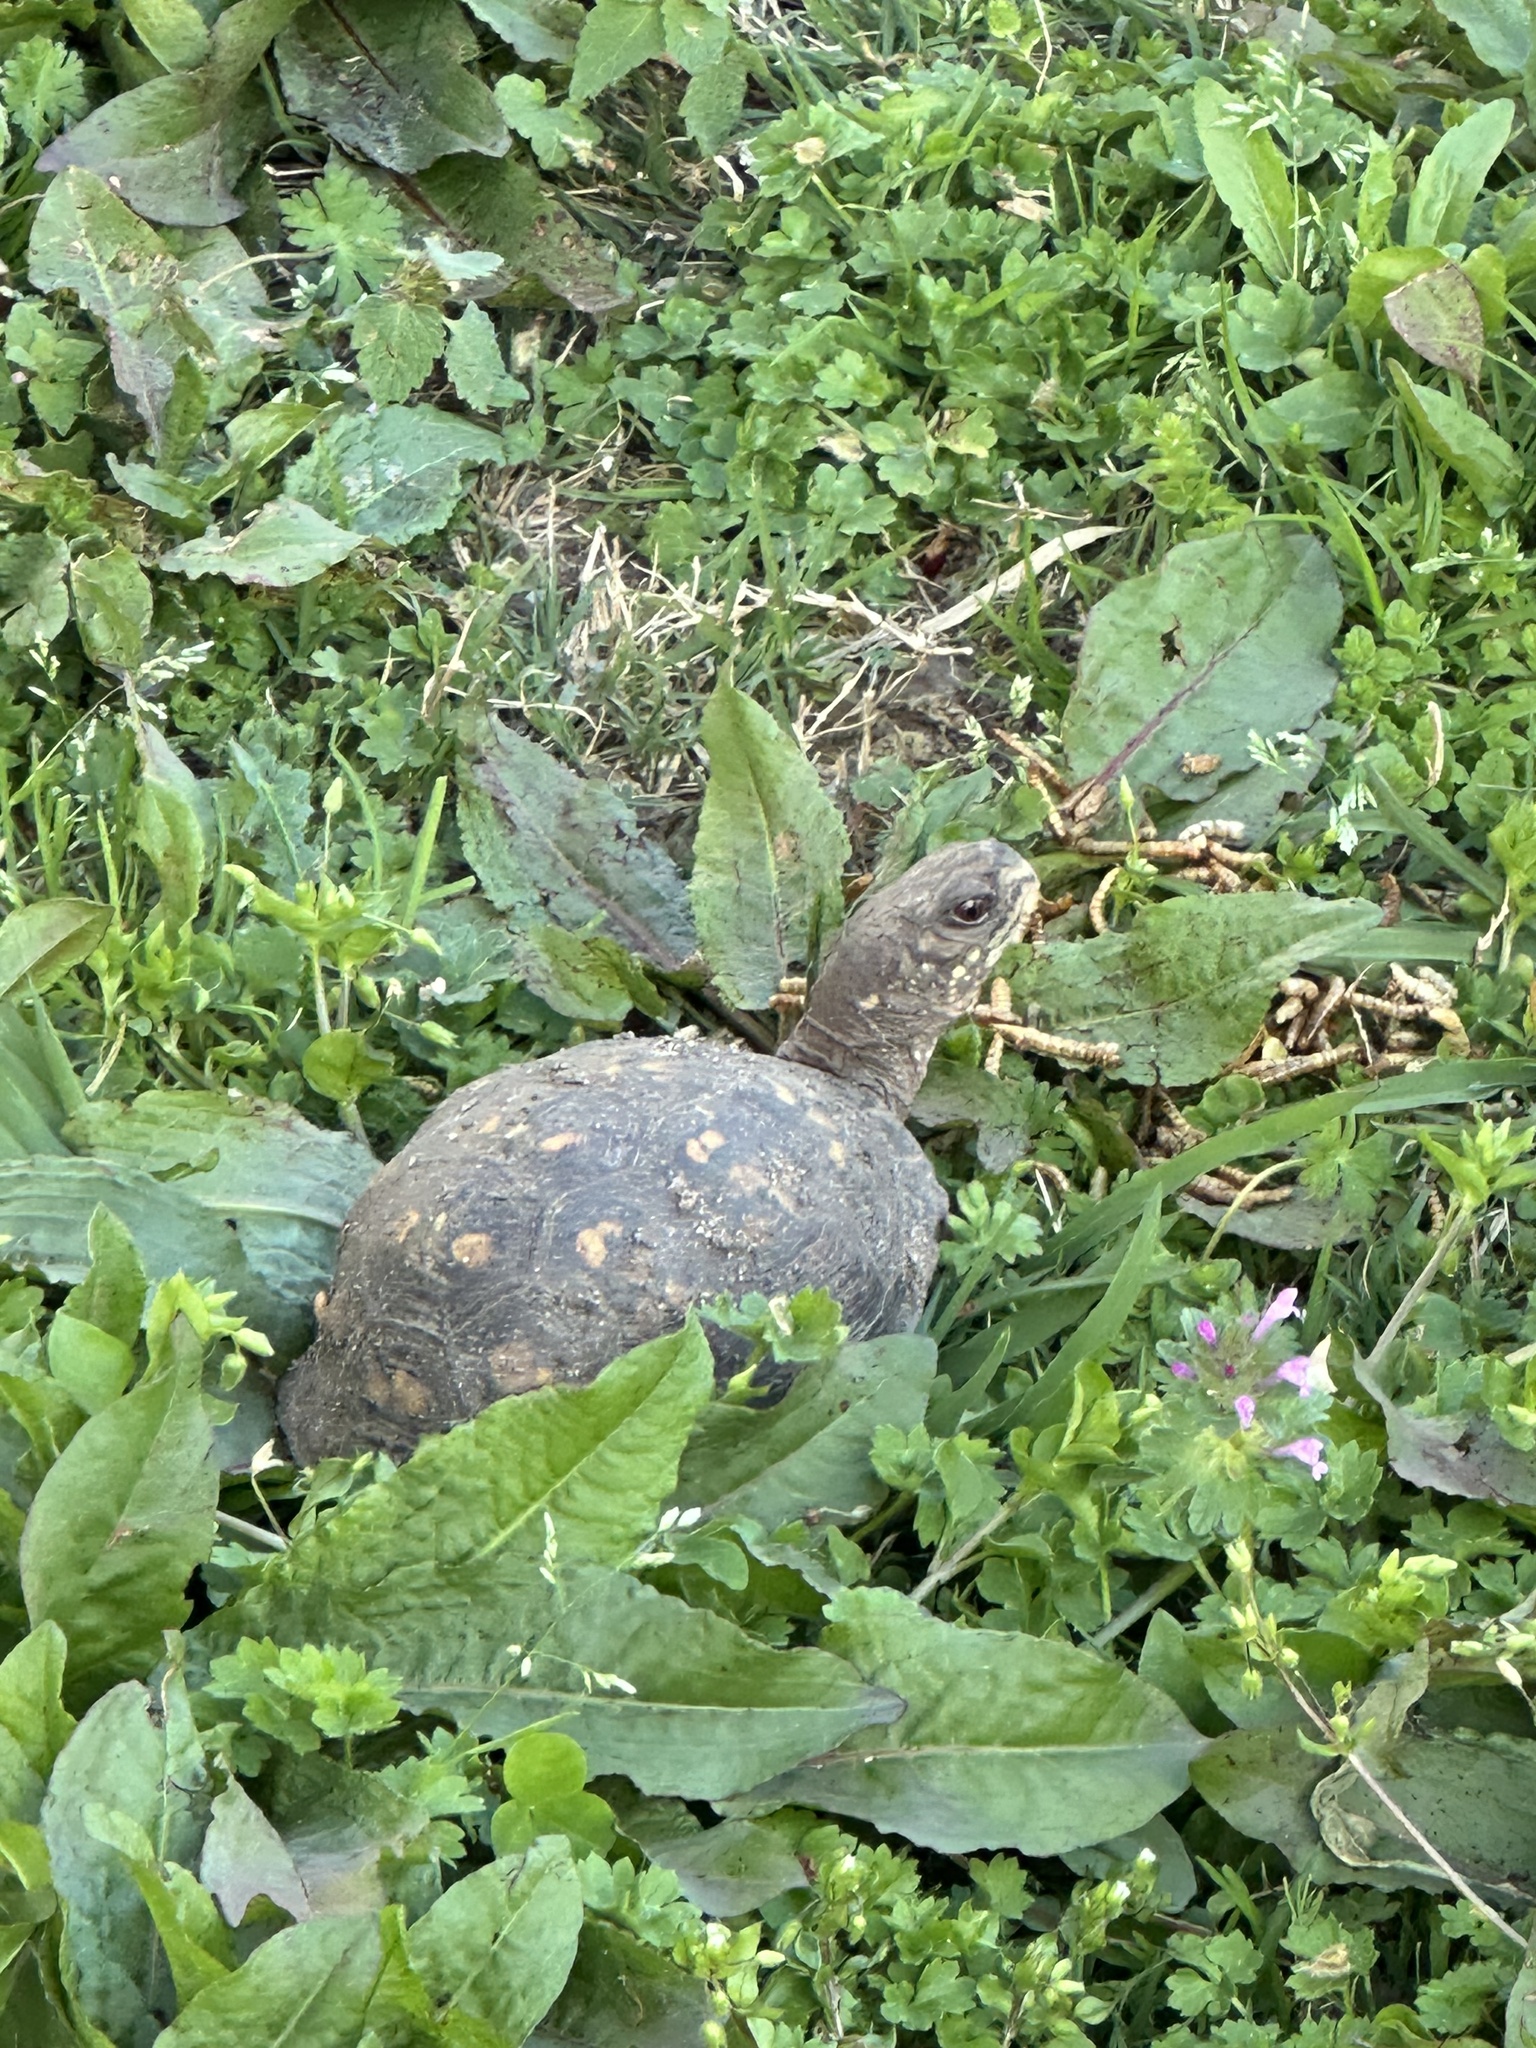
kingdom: Animalia
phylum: Chordata
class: Testudines
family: Emydidae
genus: Terrapene
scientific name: Terrapene carolina
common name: Common box turtle
